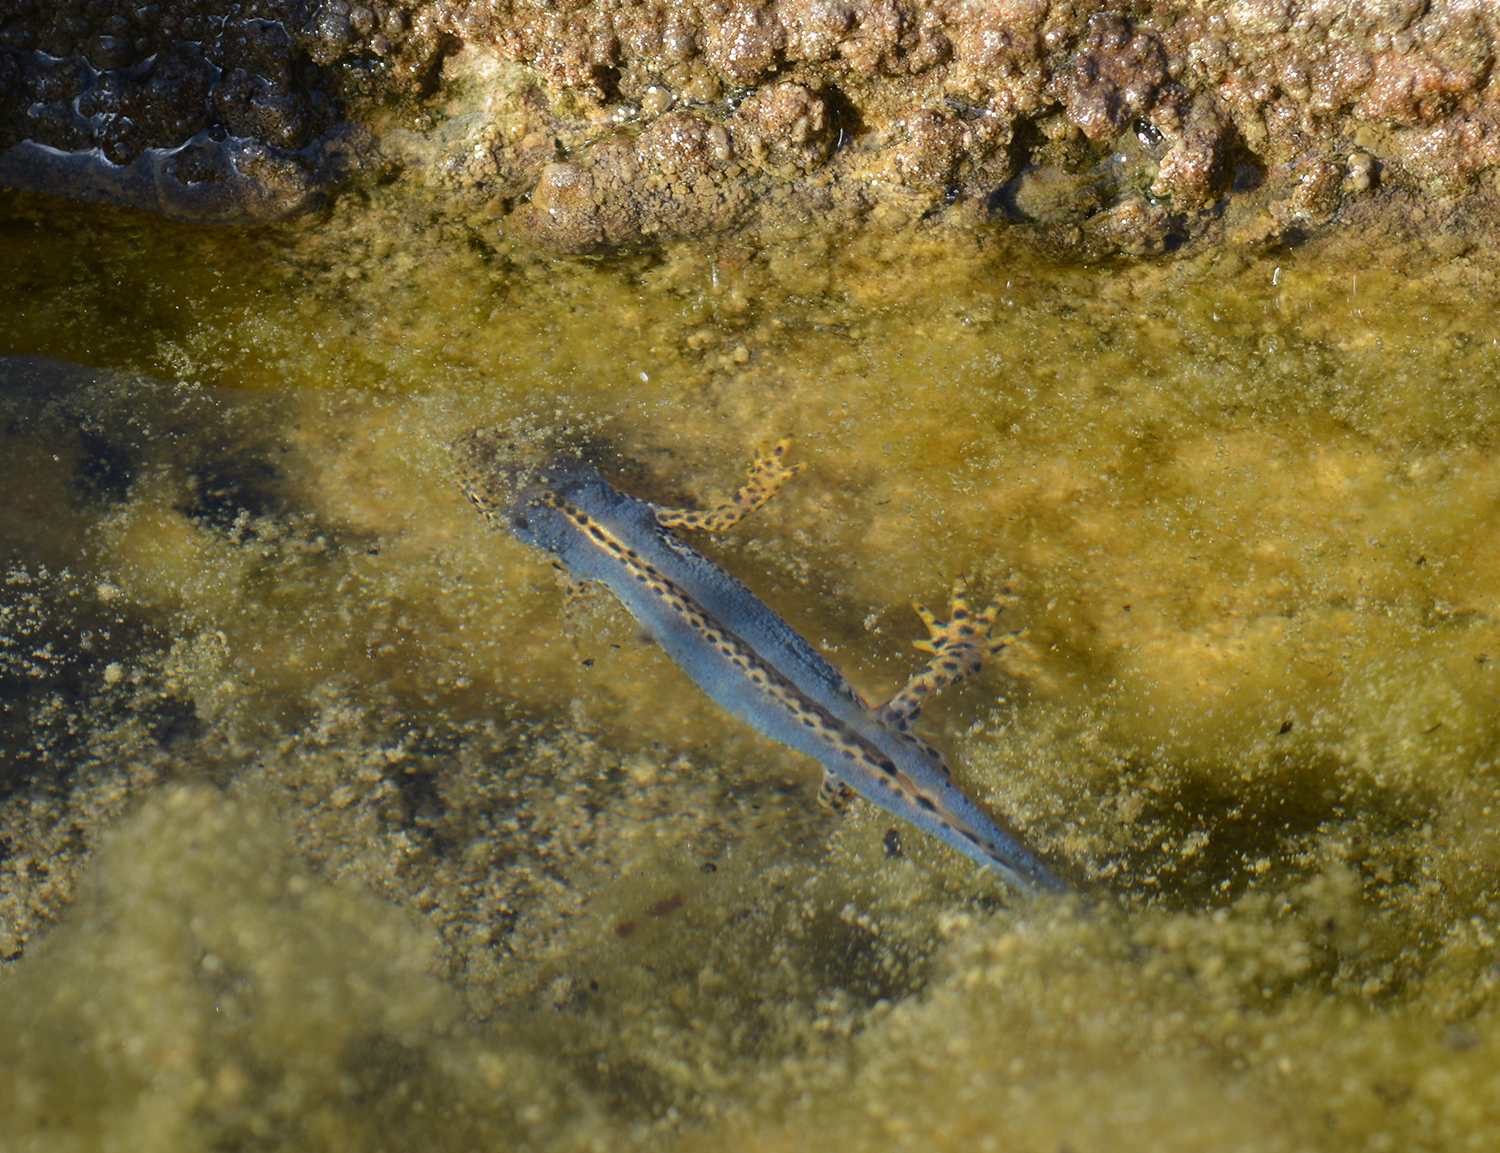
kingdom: Animalia
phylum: Chordata
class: Amphibia
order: Caudata
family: Salamandridae
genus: Ichthyosaura
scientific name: Ichthyosaura alpestris
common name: Alpine newt
